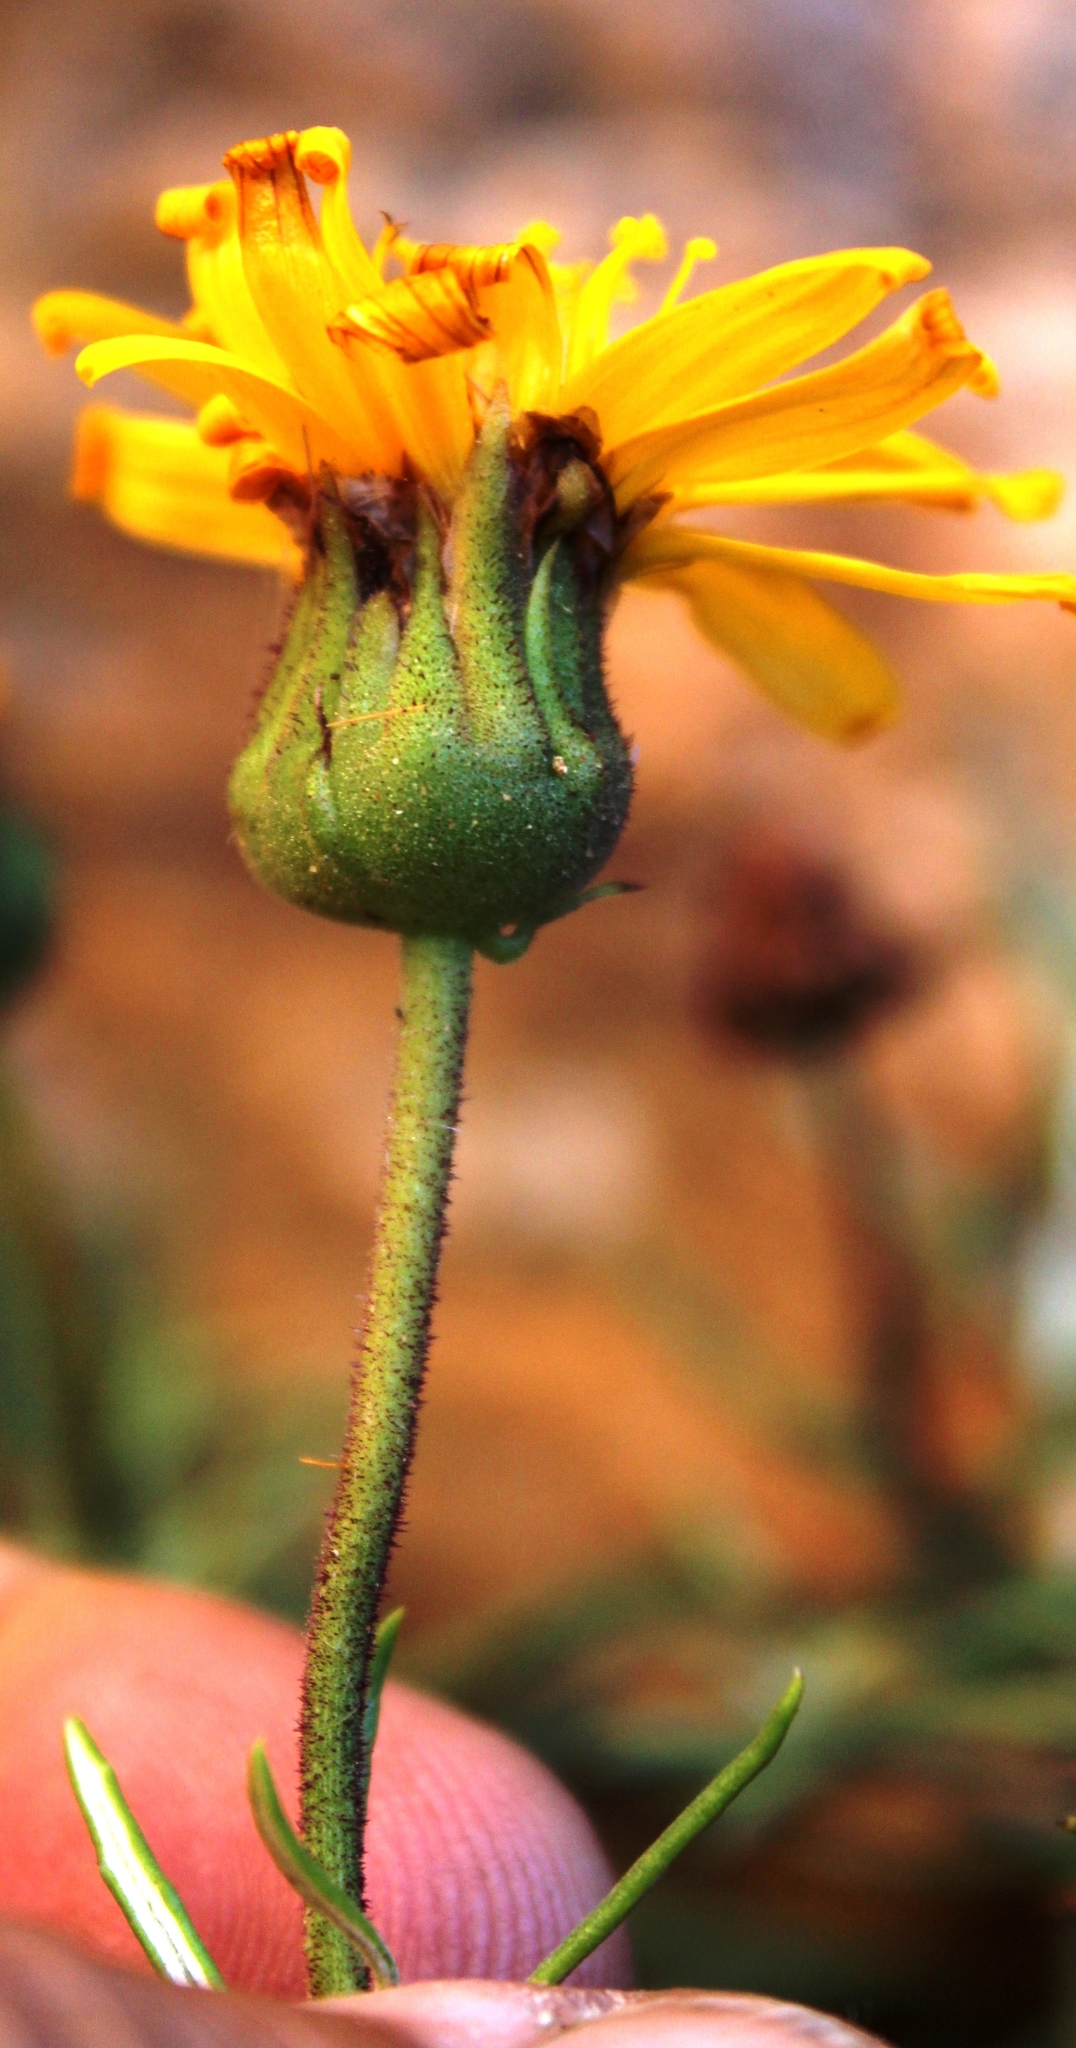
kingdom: Plantae
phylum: Tracheophyta
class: Magnoliopsida
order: Asterales
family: Asteraceae
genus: Heterolepis
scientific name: Heterolepis aliena
